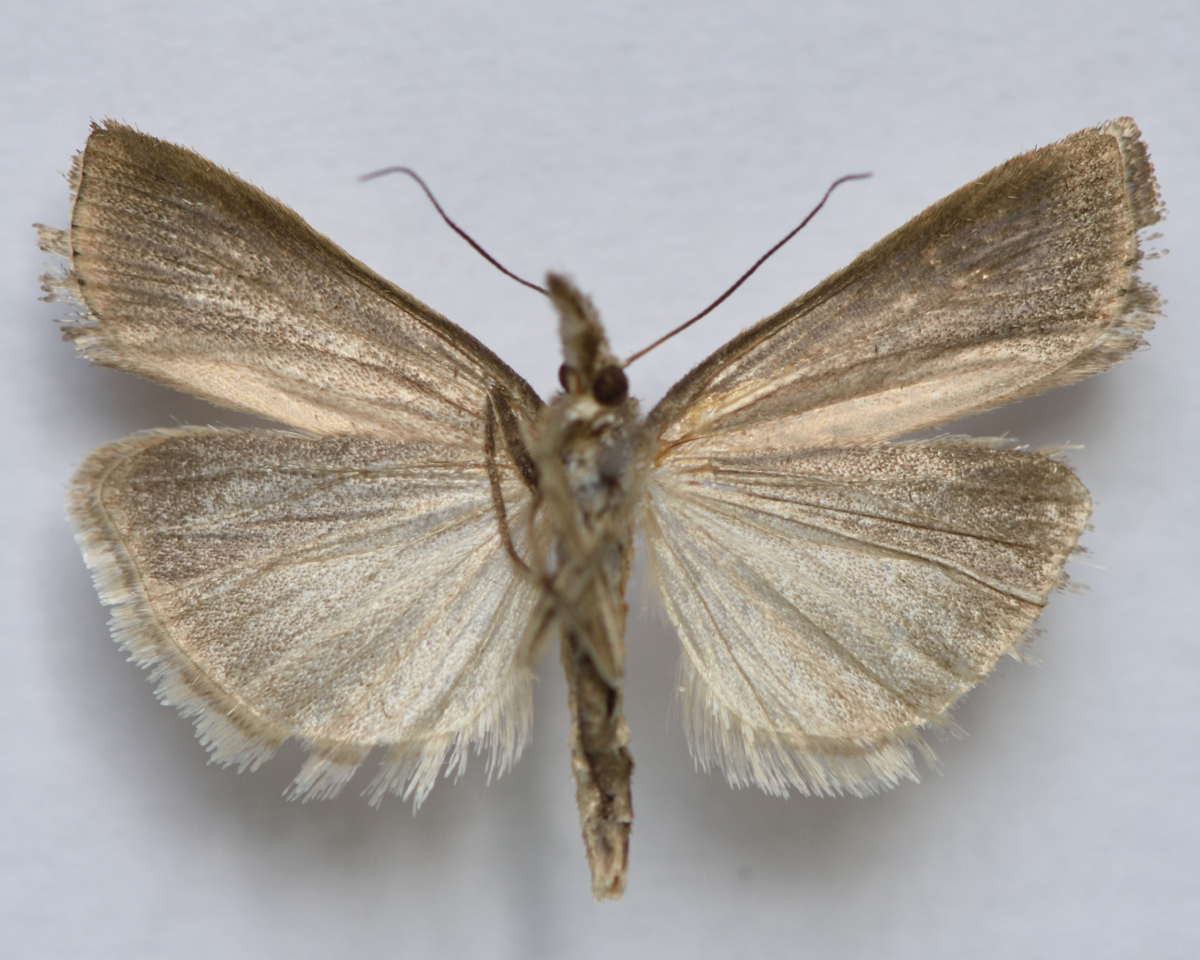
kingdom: Animalia
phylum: Arthropoda
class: Insecta
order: Lepidoptera
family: Crambidae
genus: Agriphila
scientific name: Agriphila inquinatella
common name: Barred grass-veneer
